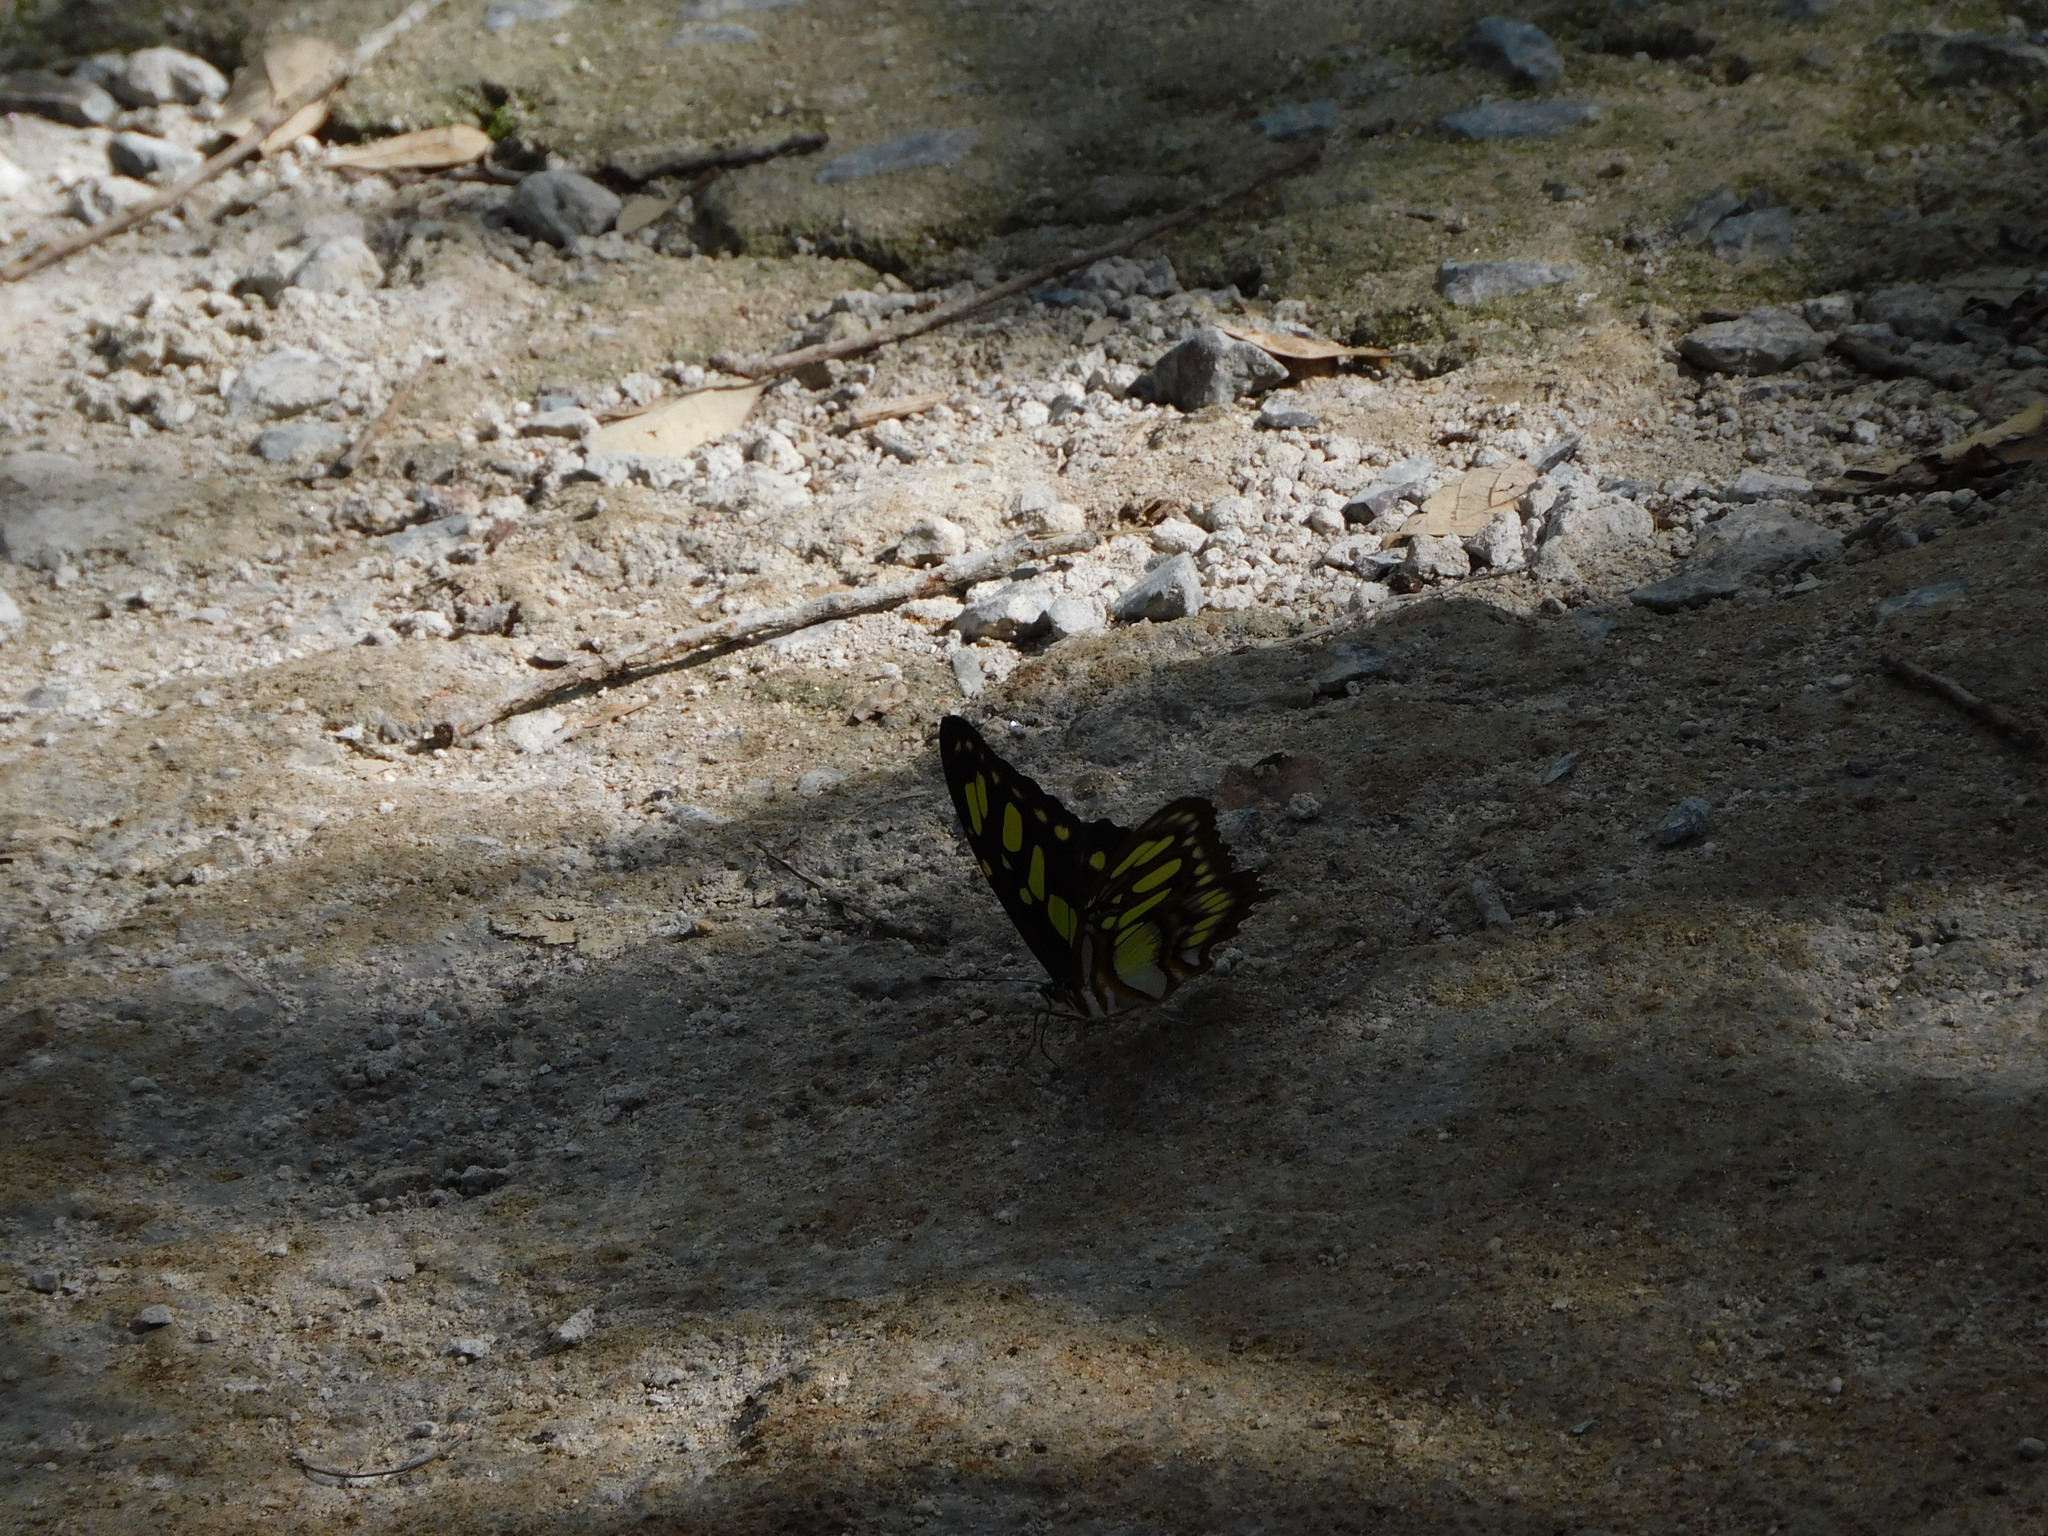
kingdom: Animalia
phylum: Arthropoda
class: Insecta
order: Lepidoptera
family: Nymphalidae
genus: Siproeta
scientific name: Siproeta stelenes
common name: Malachite
